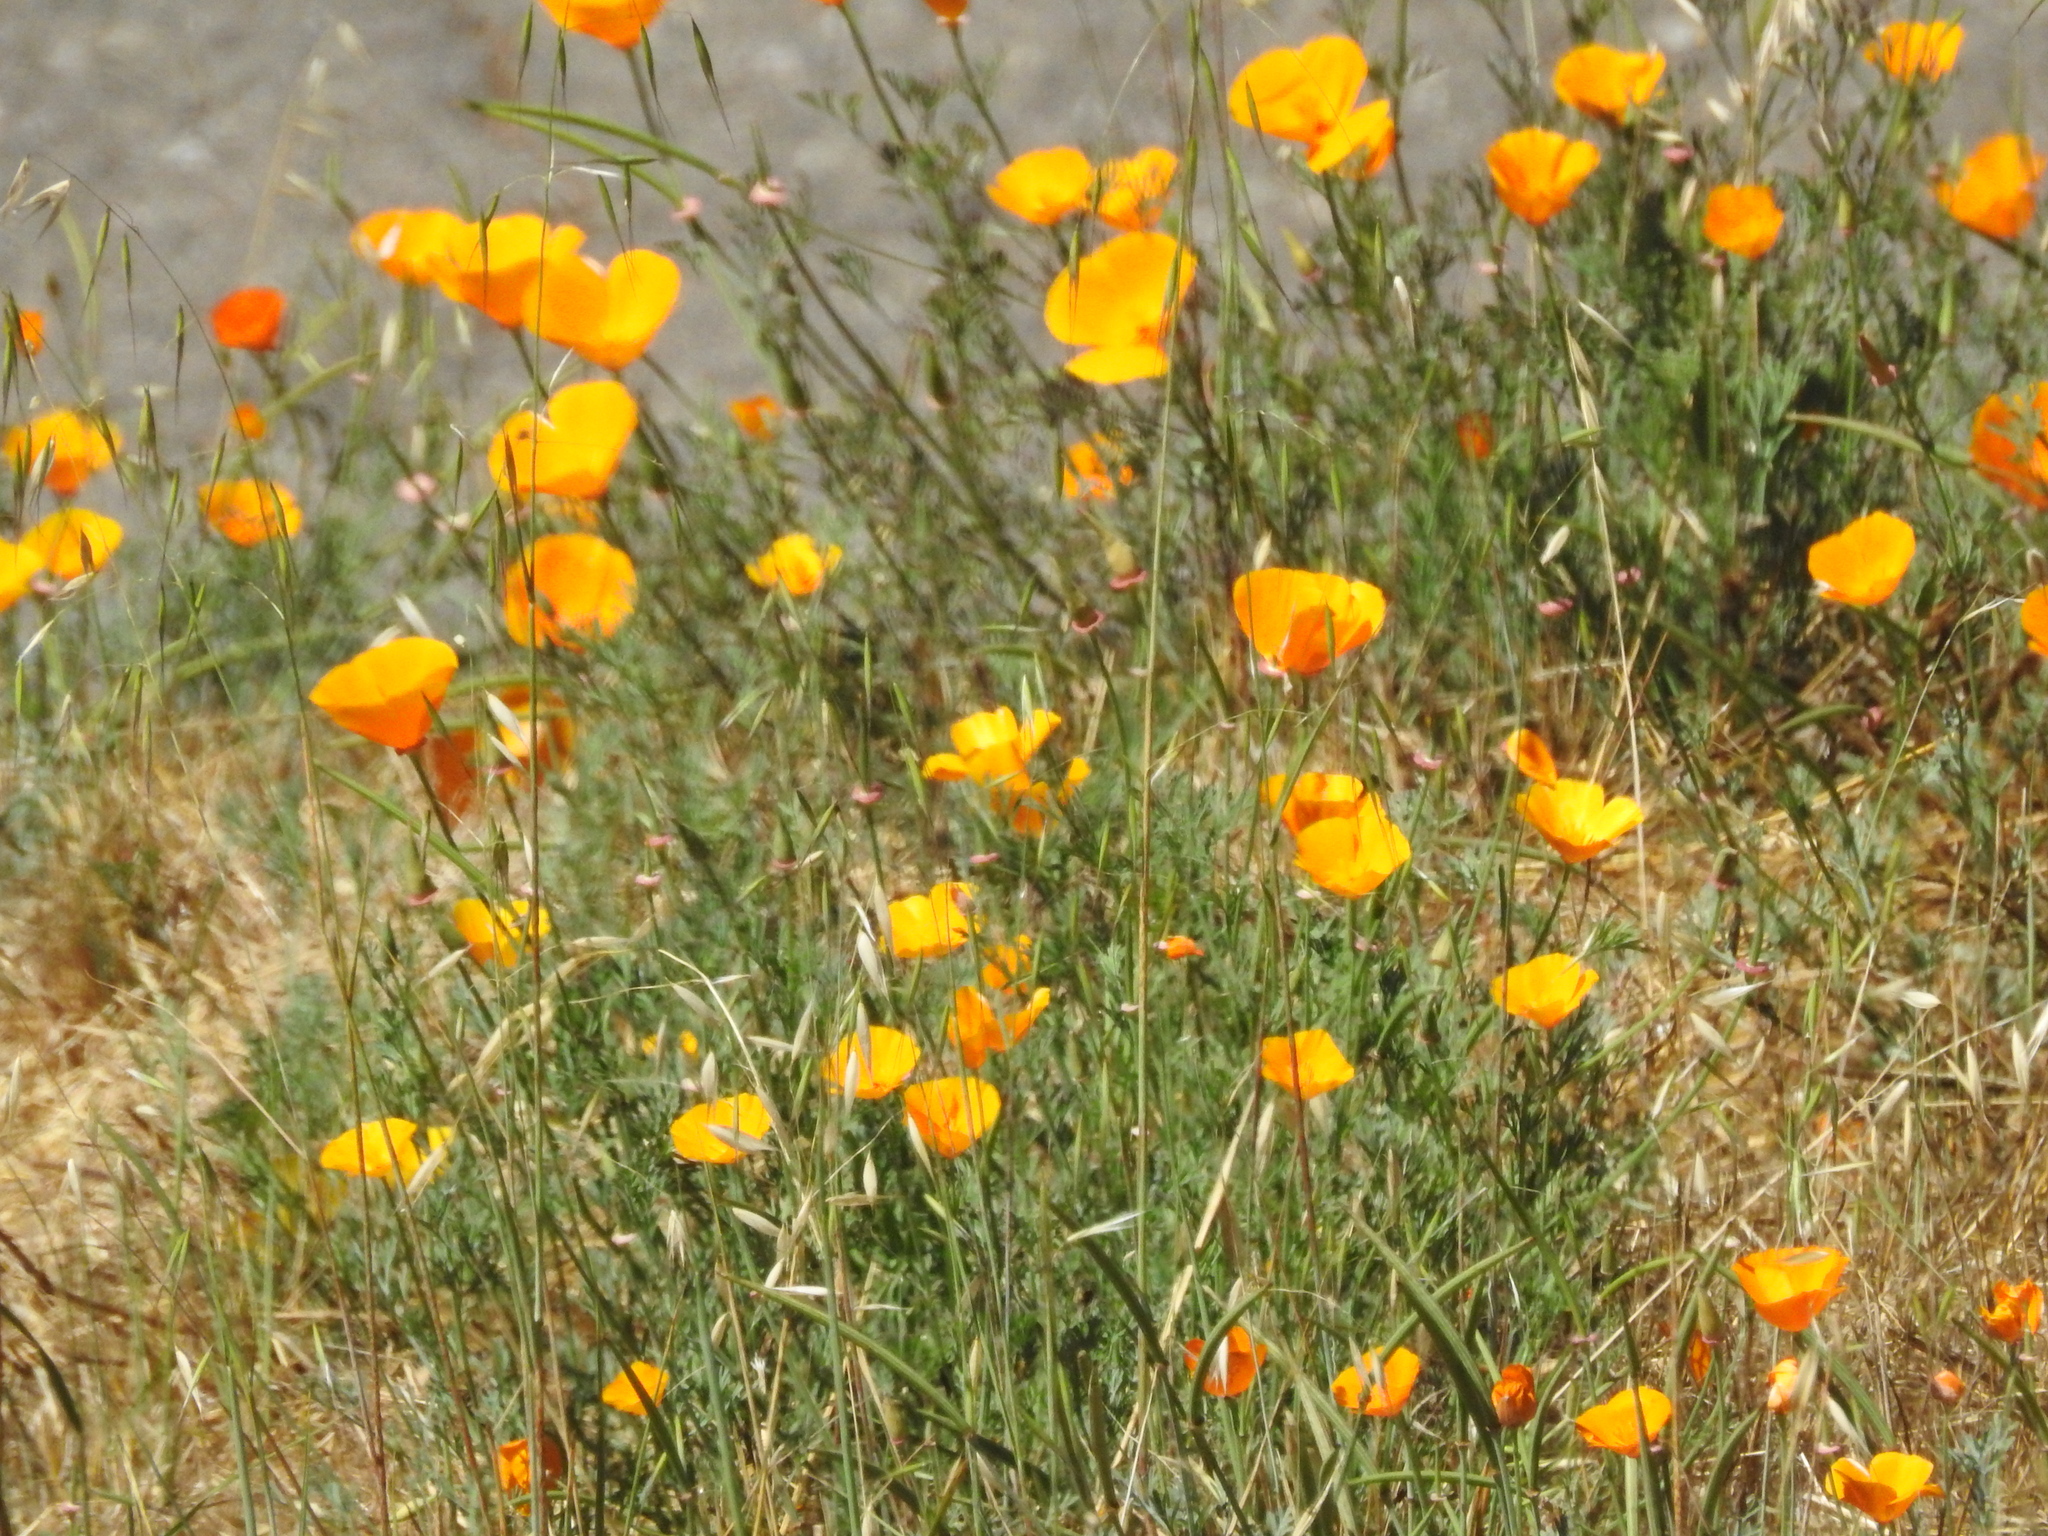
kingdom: Plantae
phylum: Tracheophyta
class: Magnoliopsida
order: Ranunculales
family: Papaveraceae
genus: Eschscholzia
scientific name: Eschscholzia californica
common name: California poppy
